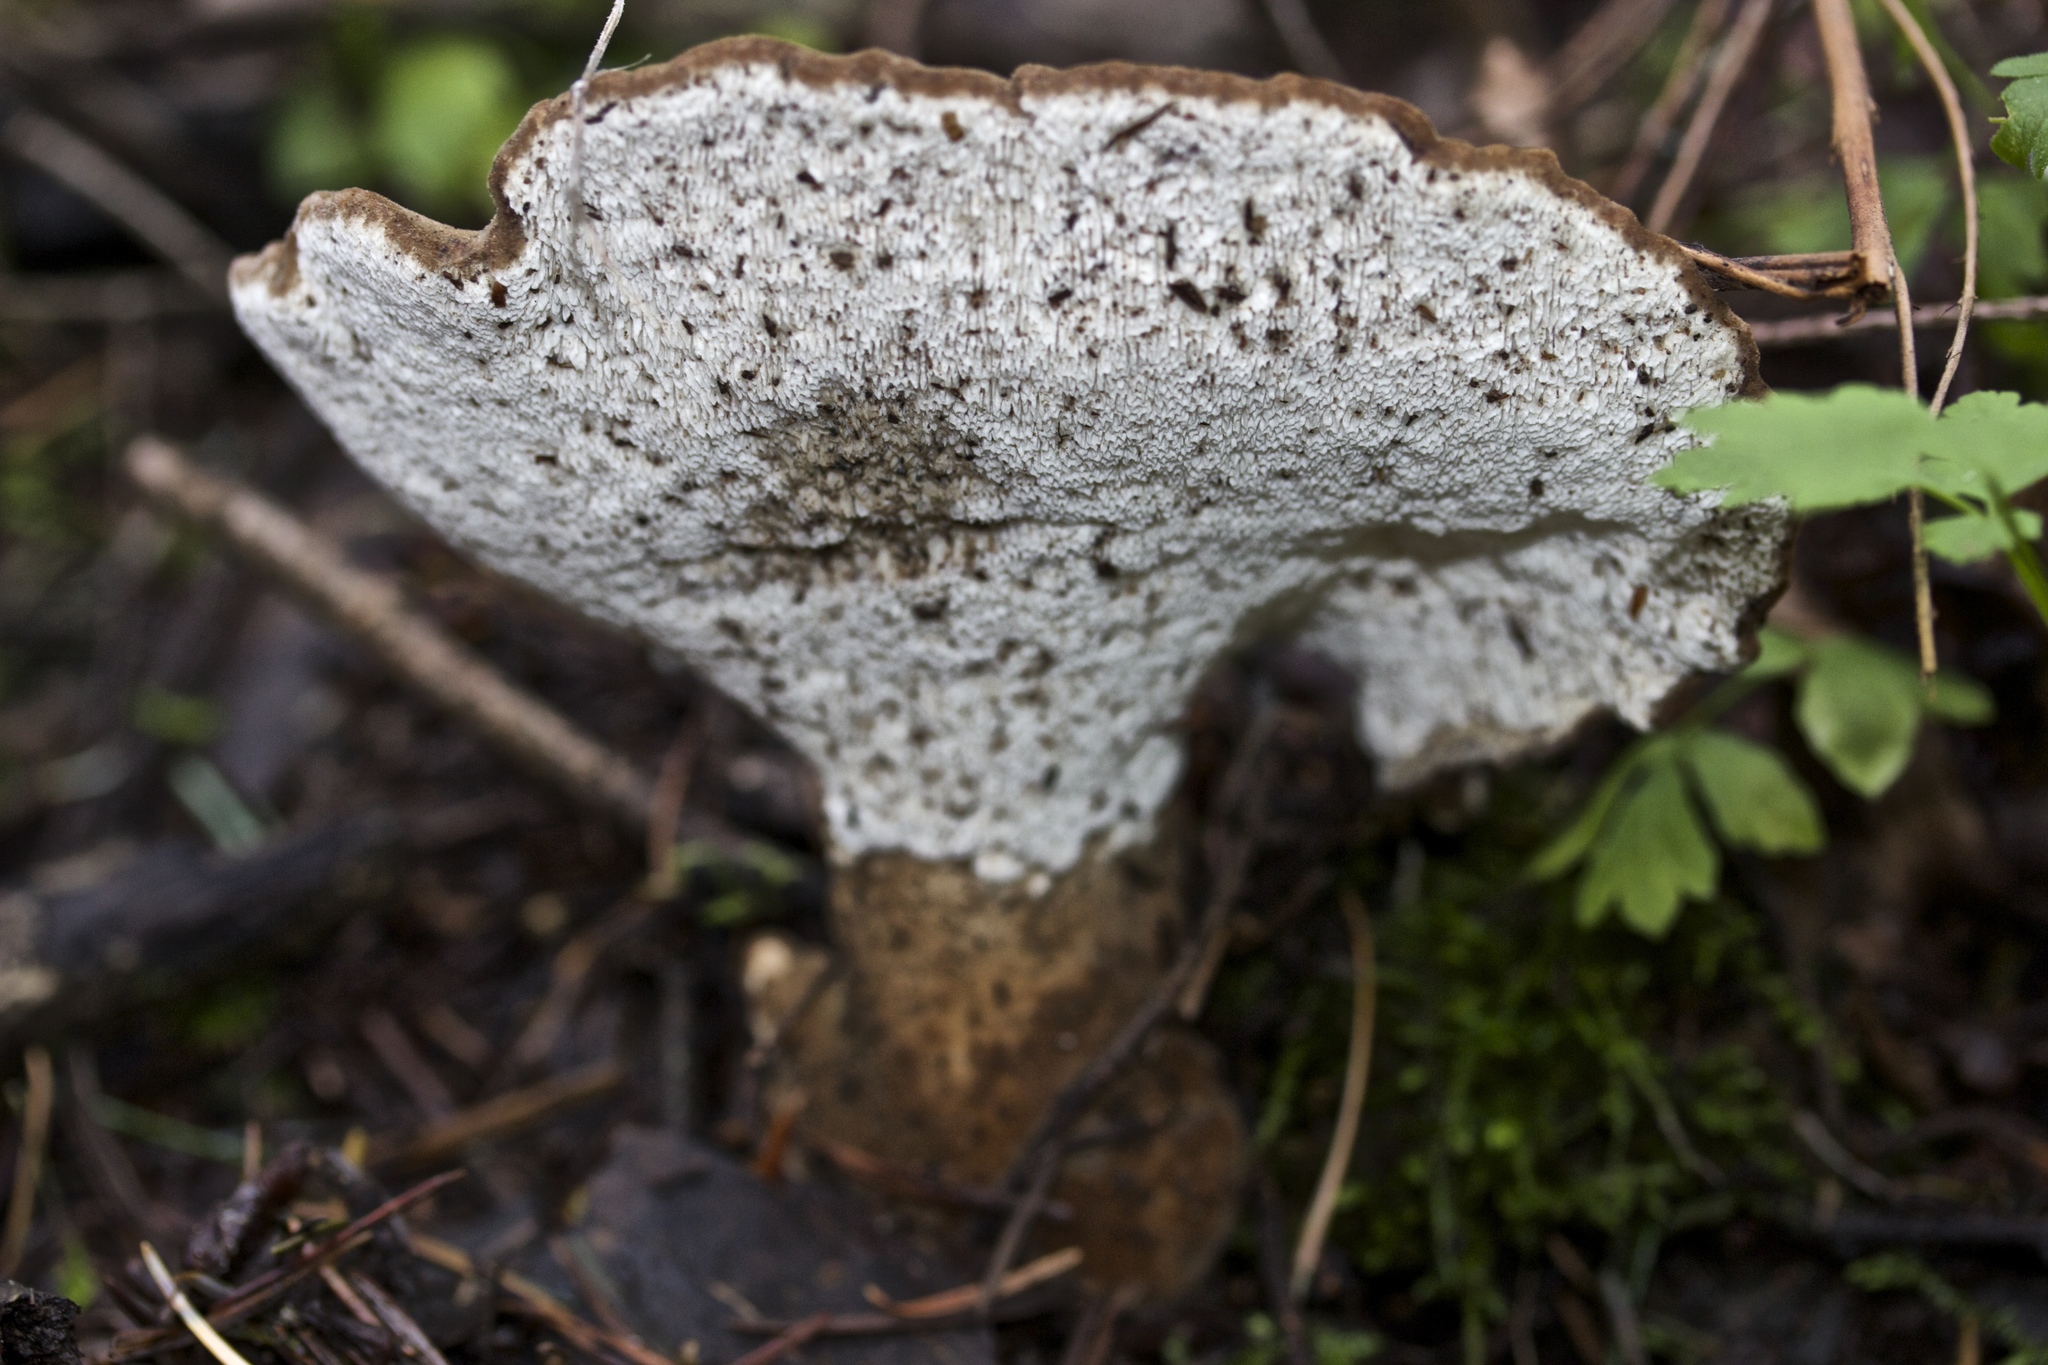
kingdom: Fungi
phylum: Basidiomycota
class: Agaricomycetes
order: Polyporales
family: Dacryobolaceae
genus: Jahnoporus
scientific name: Jahnoporus hirtus
